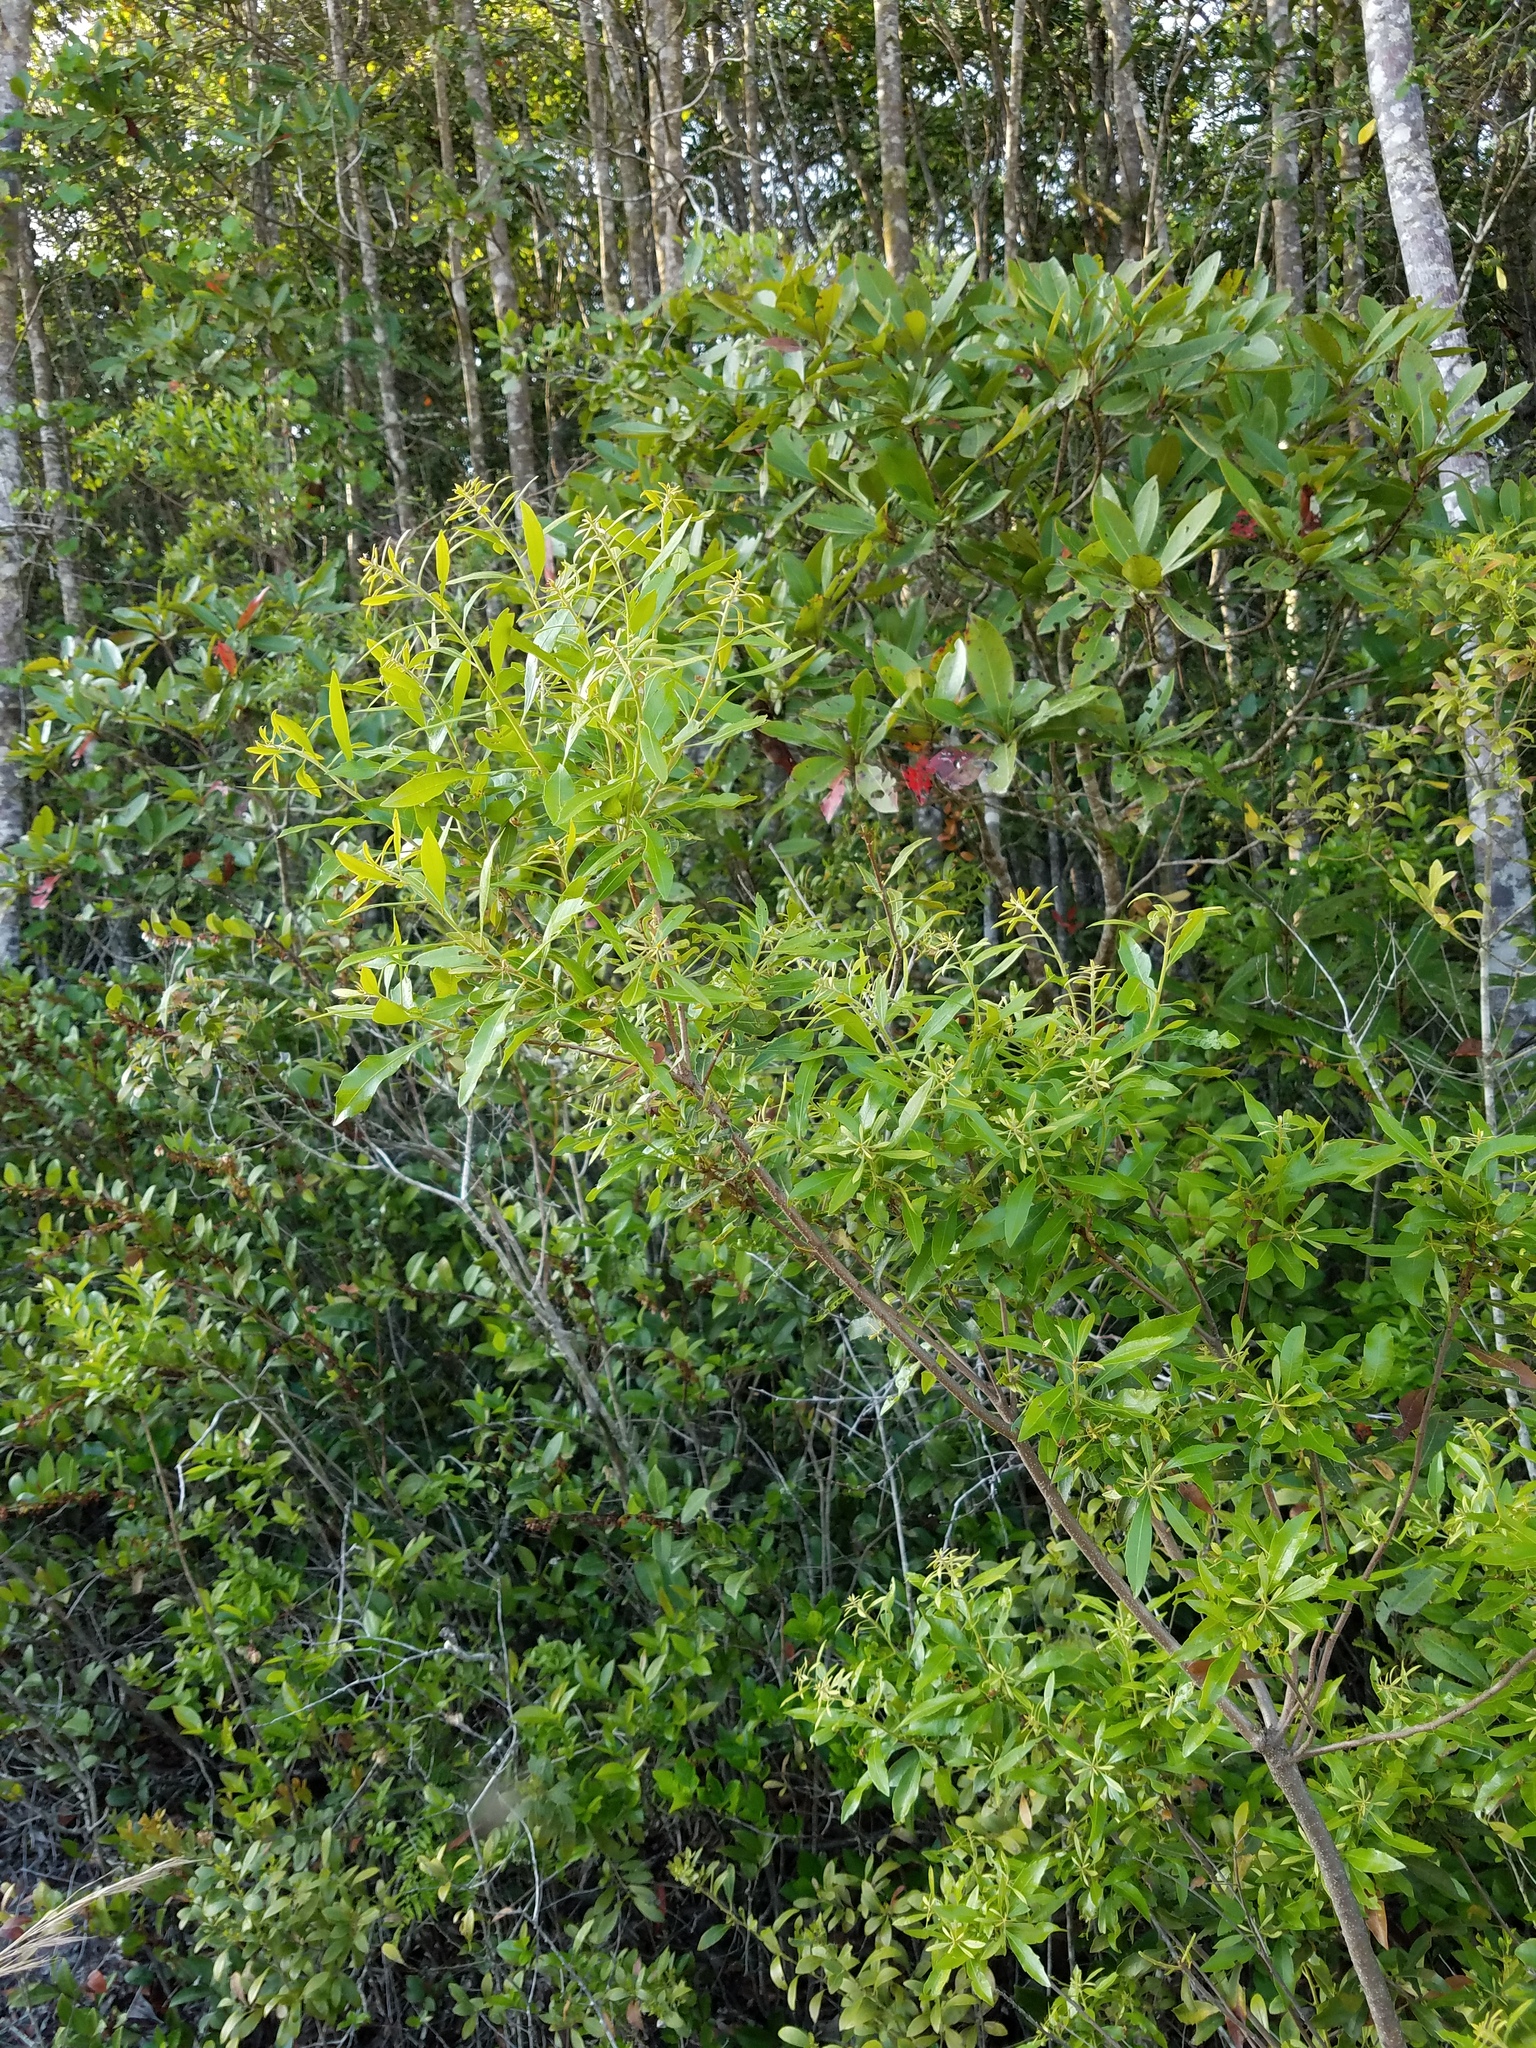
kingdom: Plantae
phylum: Tracheophyta
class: Magnoliopsida
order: Fagales
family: Myricaceae
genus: Morella
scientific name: Morella cerifera
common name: Wax myrtle
